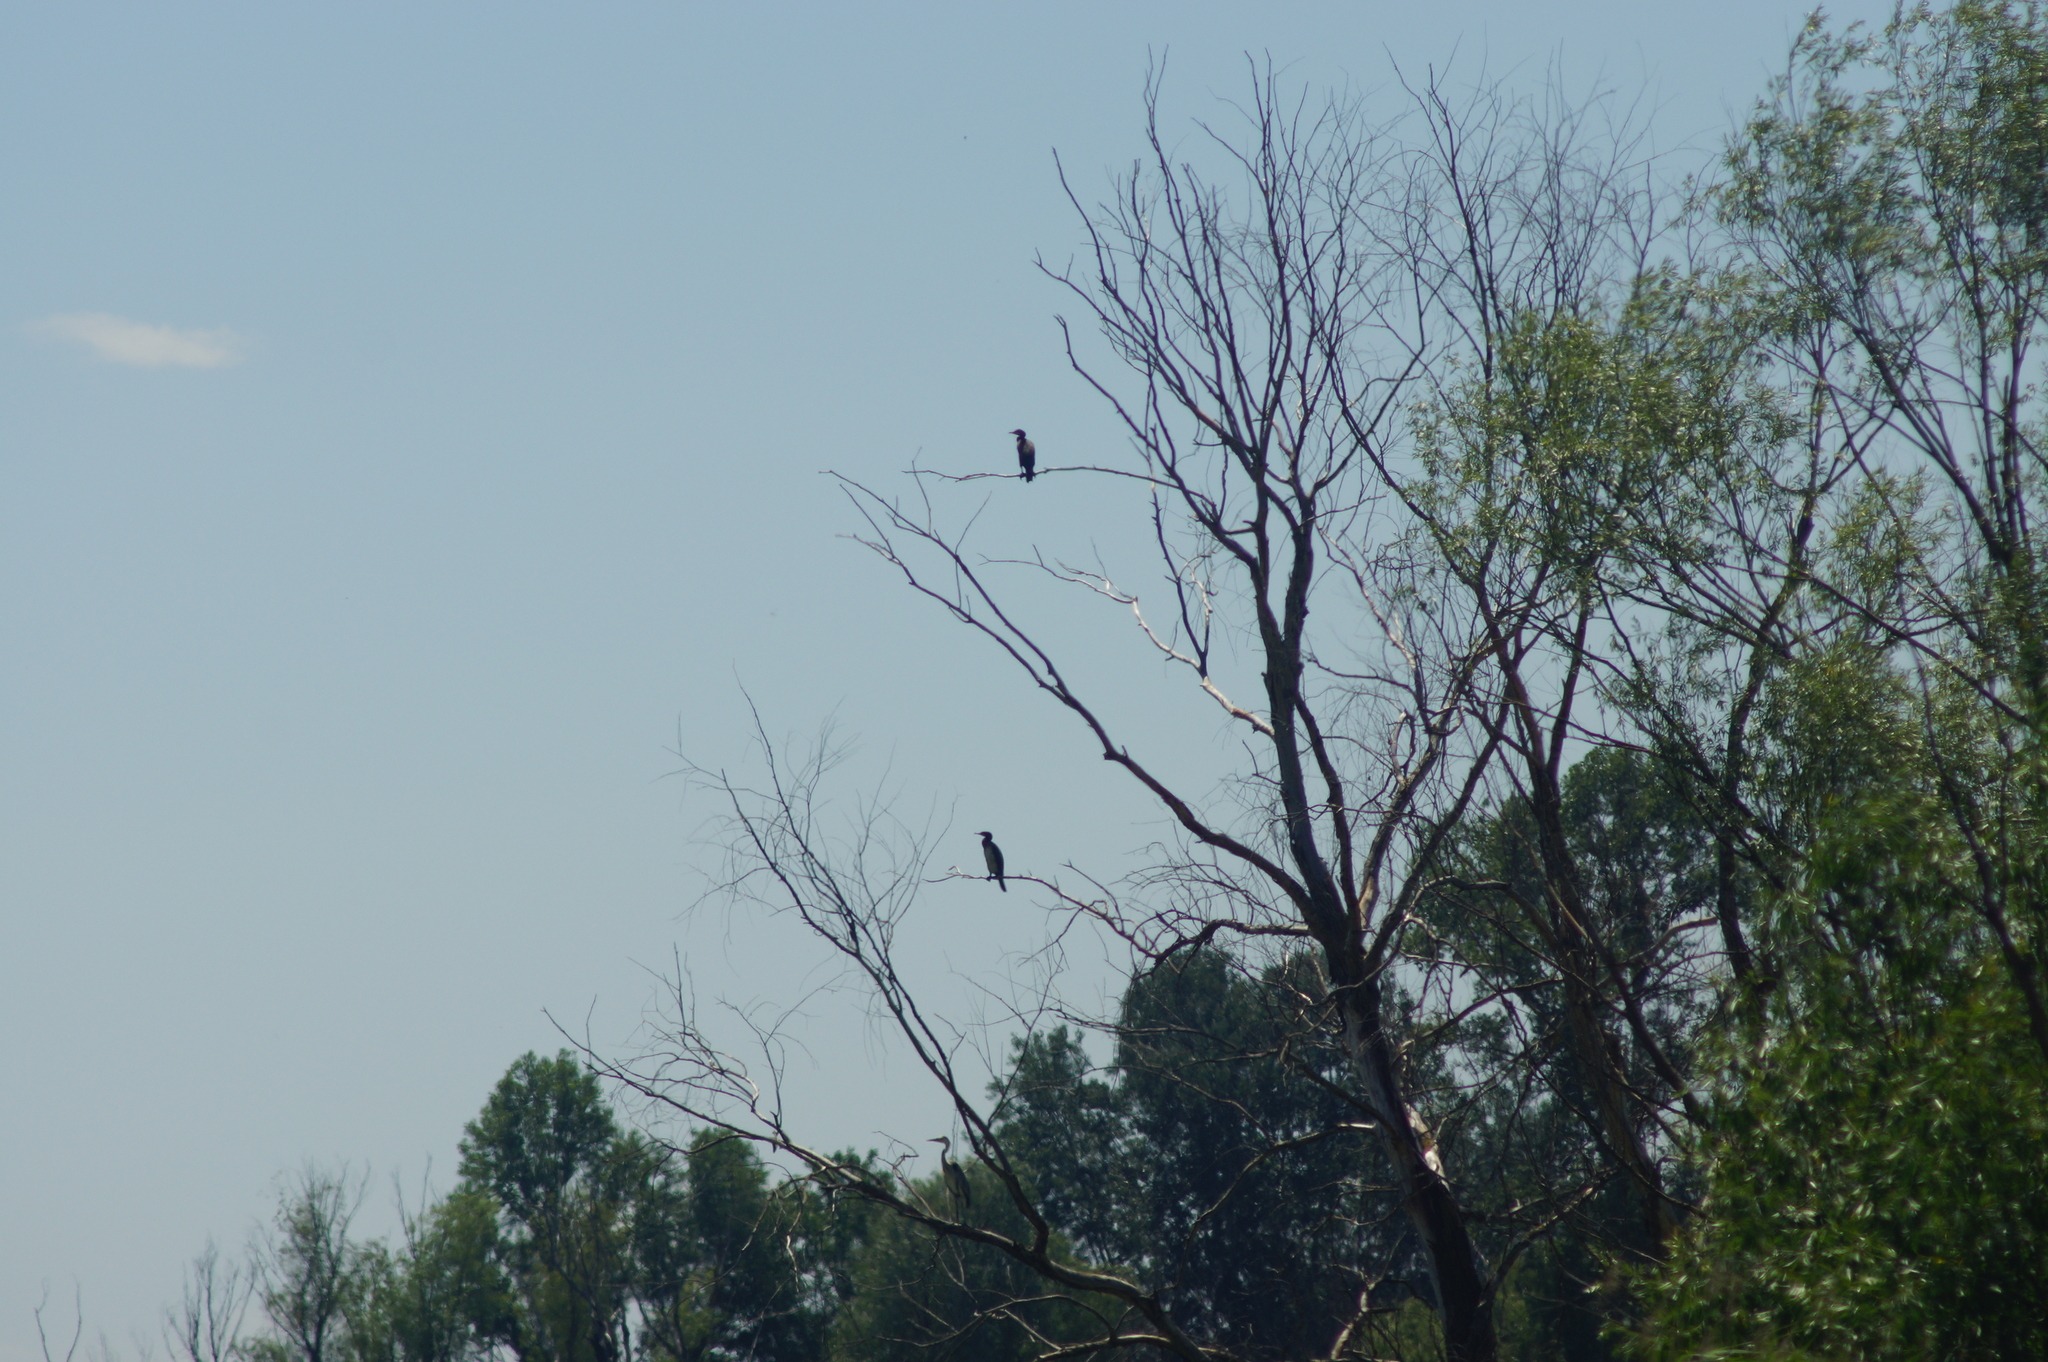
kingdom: Animalia
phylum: Chordata
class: Aves
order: Suliformes
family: Phalacrocoracidae
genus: Phalacrocorax
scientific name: Phalacrocorax carbo
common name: Great cormorant
